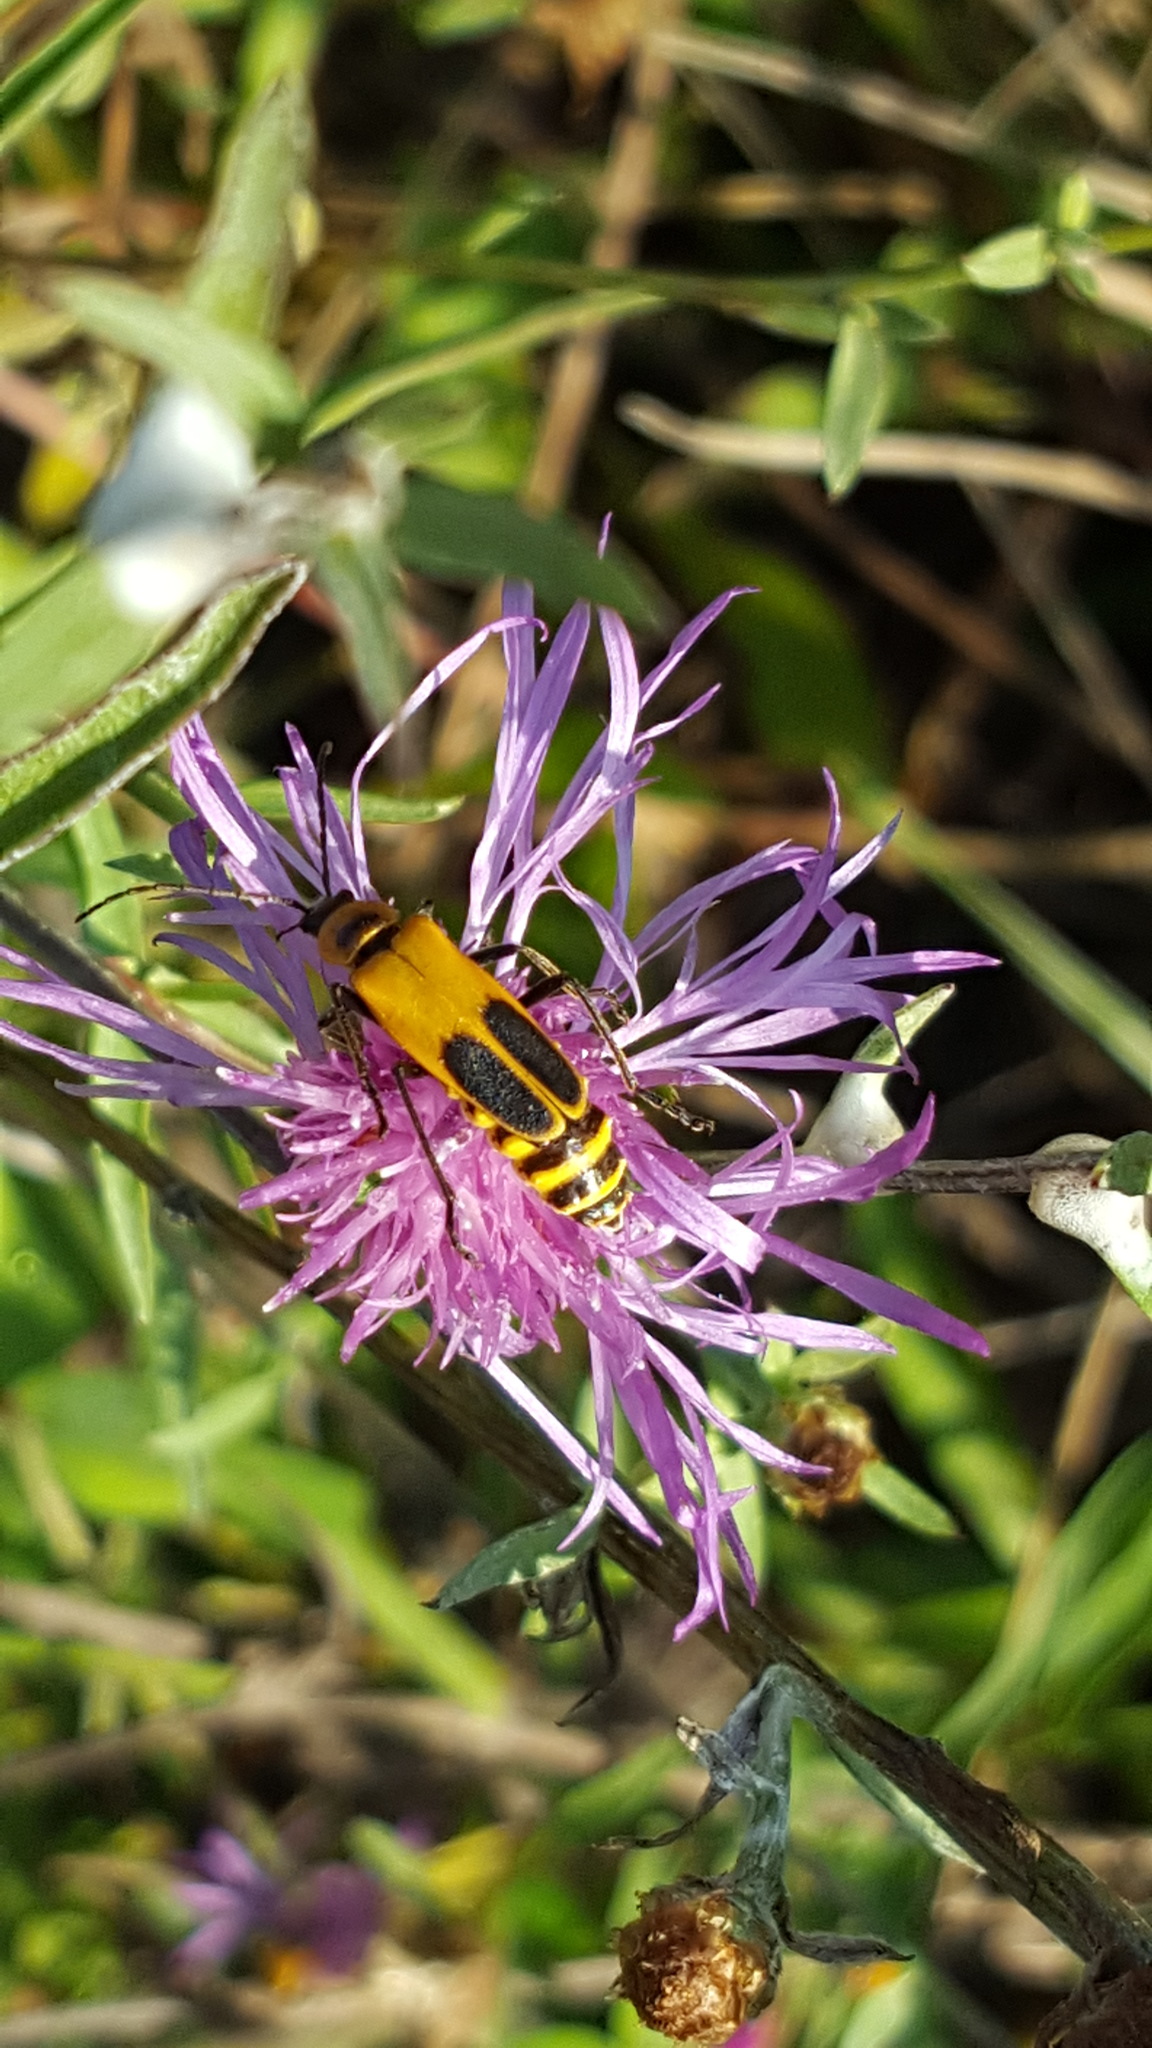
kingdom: Animalia
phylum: Arthropoda
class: Insecta
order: Coleoptera
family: Cantharidae
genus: Chauliognathus
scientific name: Chauliognathus pensylvanicus
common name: Goldenrod soldier beetle
